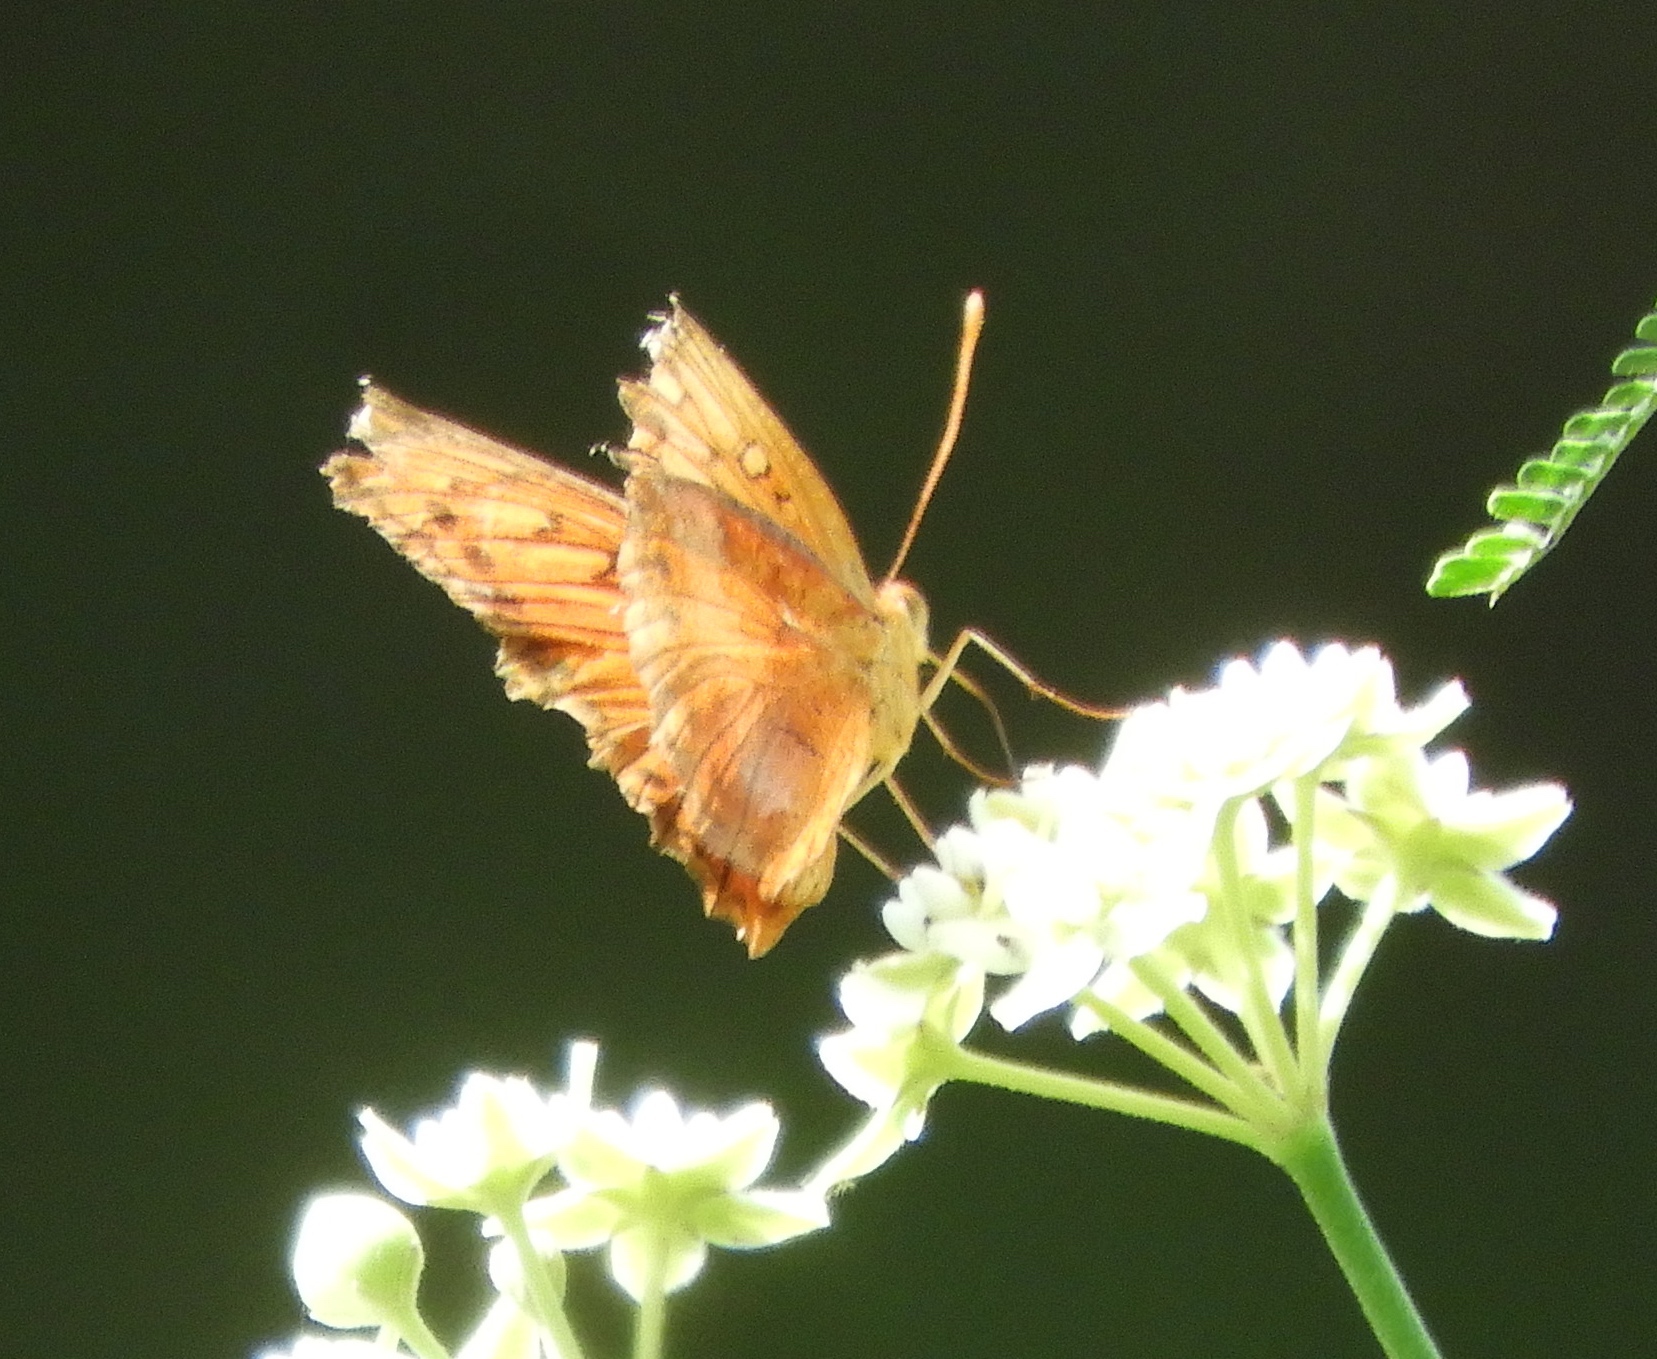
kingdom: Animalia
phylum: Arthropoda
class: Insecta
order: Lepidoptera
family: Nymphalidae
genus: Euptoieta
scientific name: Euptoieta hegesia
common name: Mexican fritillary
